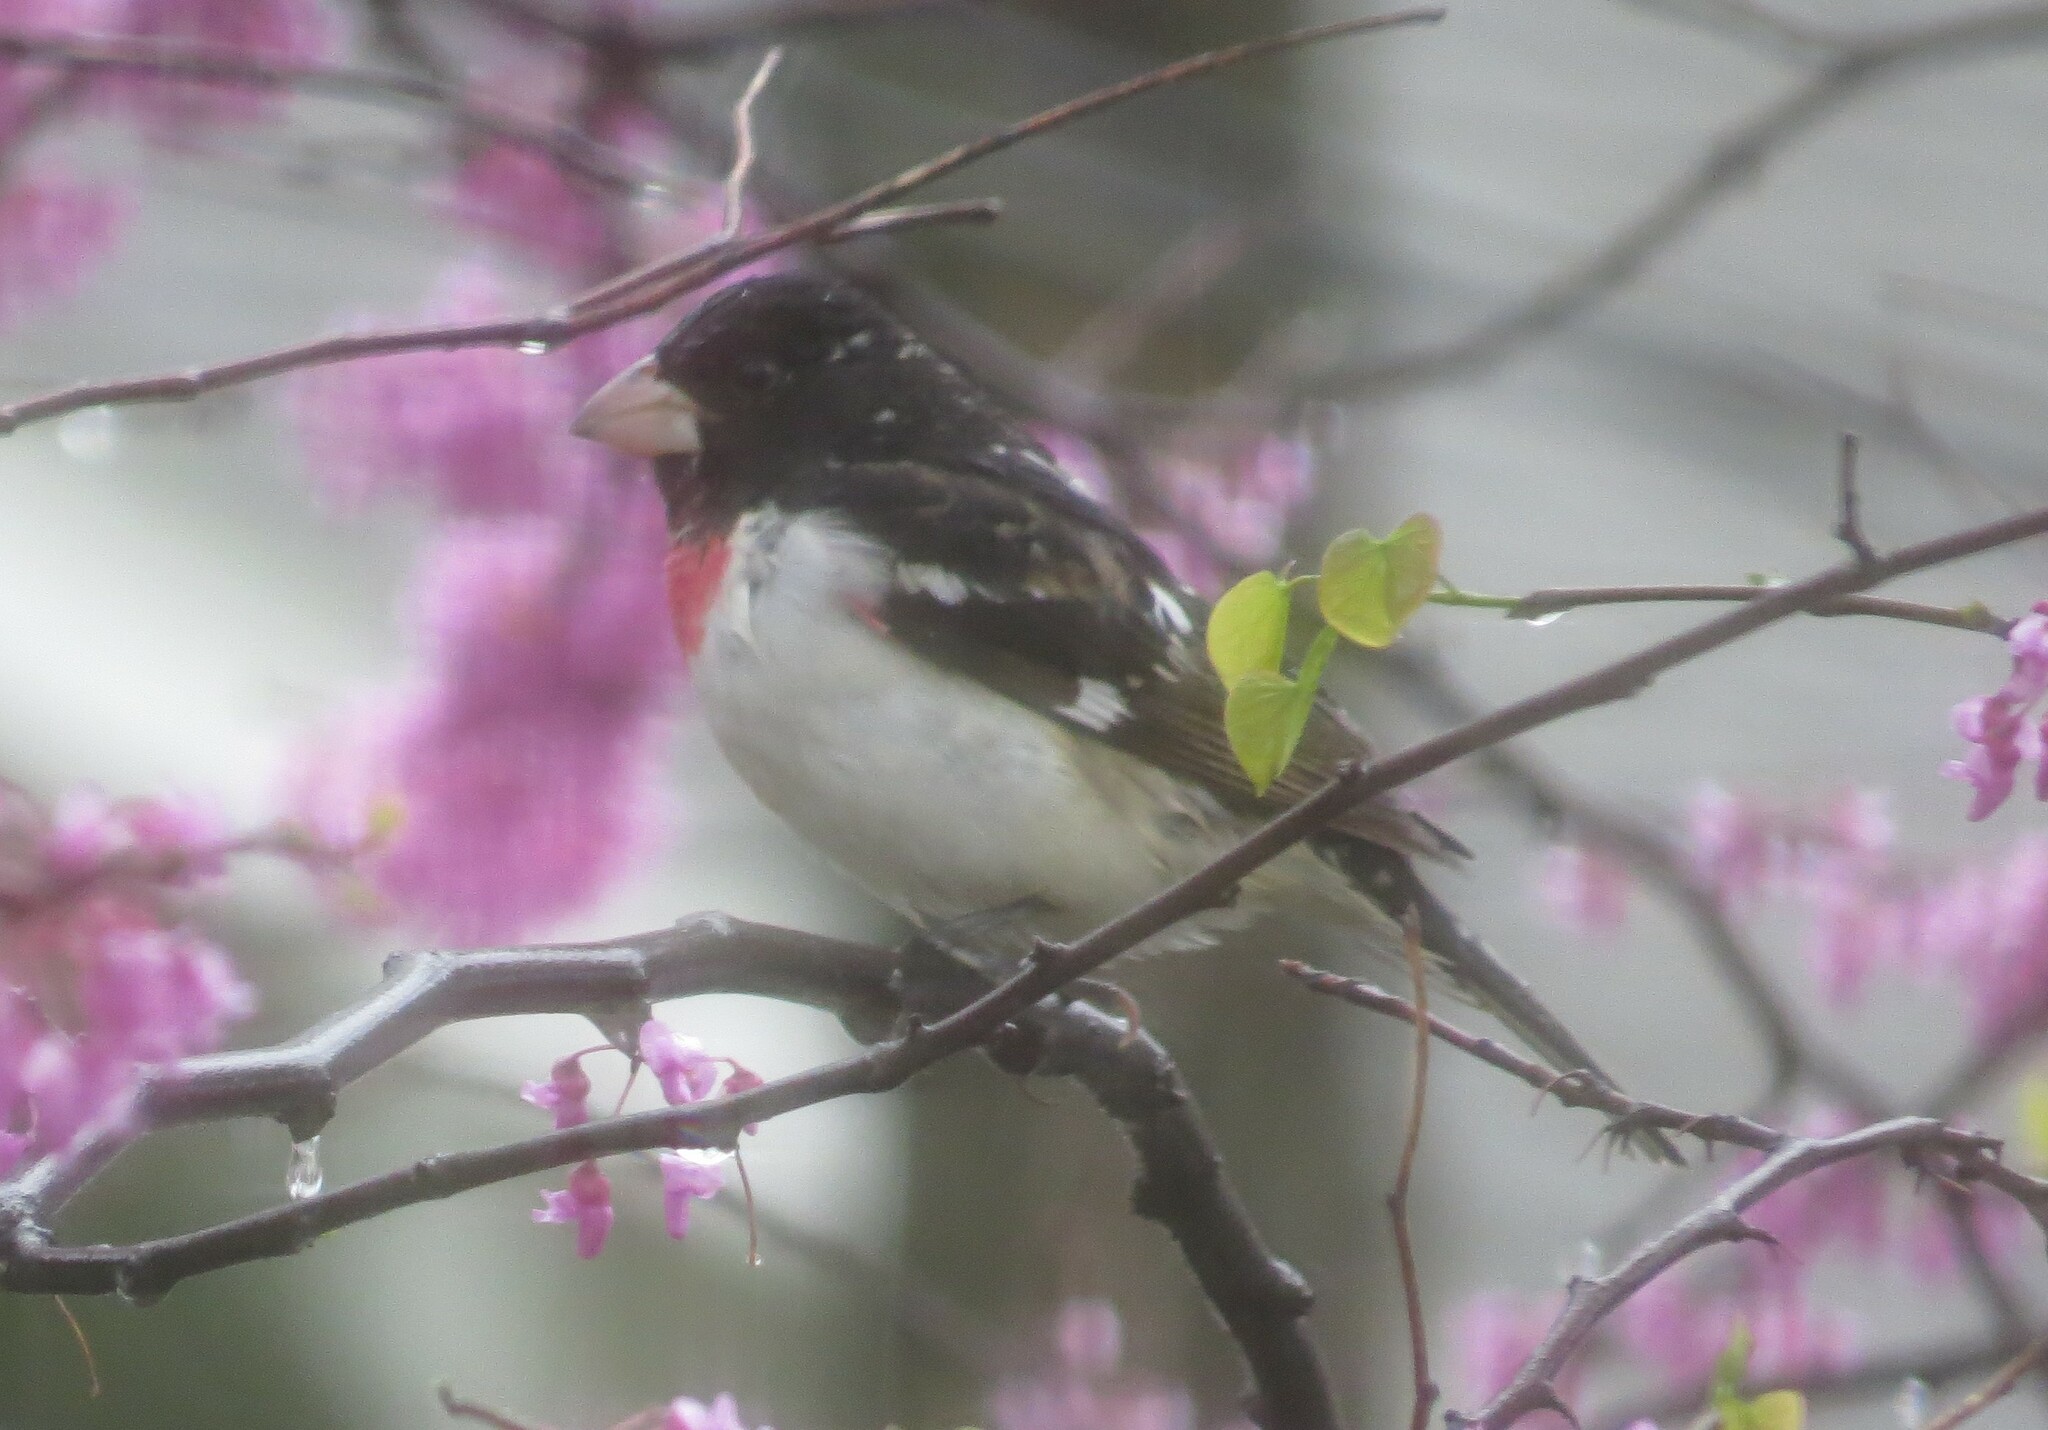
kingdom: Animalia
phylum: Chordata
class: Aves
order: Passeriformes
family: Cardinalidae
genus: Pheucticus
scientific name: Pheucticus ludovicianus
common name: Rose-breasted grosbeak
